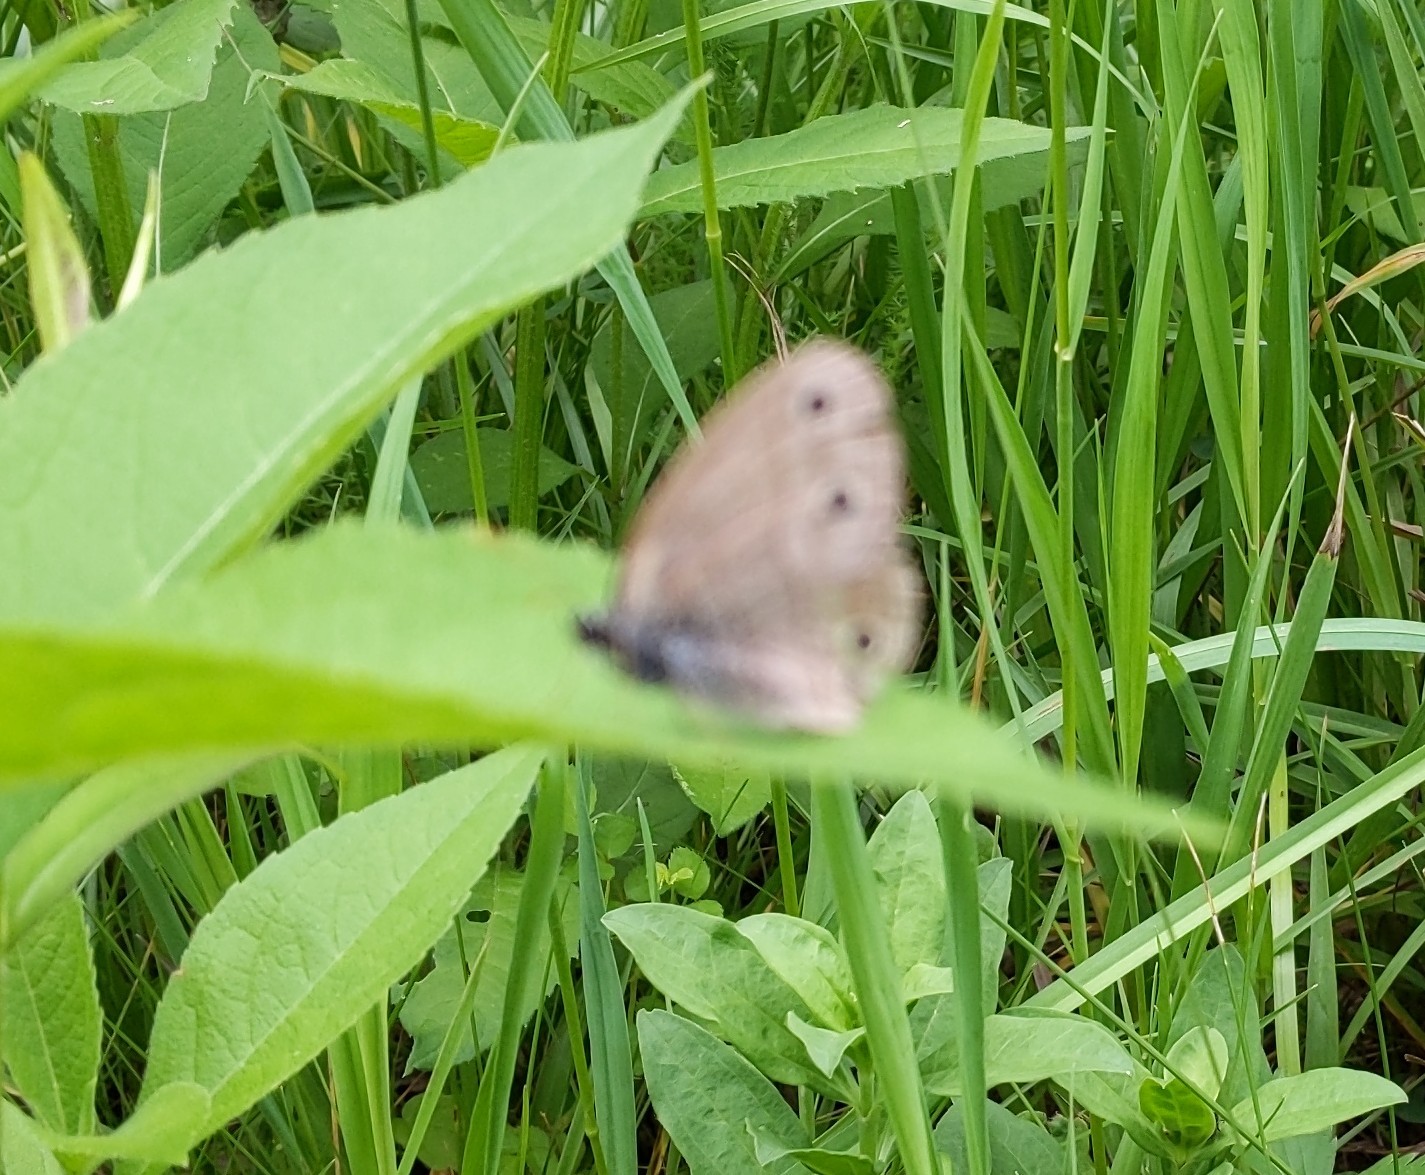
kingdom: Animalia
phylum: Arthropoda
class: Insecta
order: Lepidoptera
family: Nymphalidae
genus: Euptychia
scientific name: Euptychia cymela
